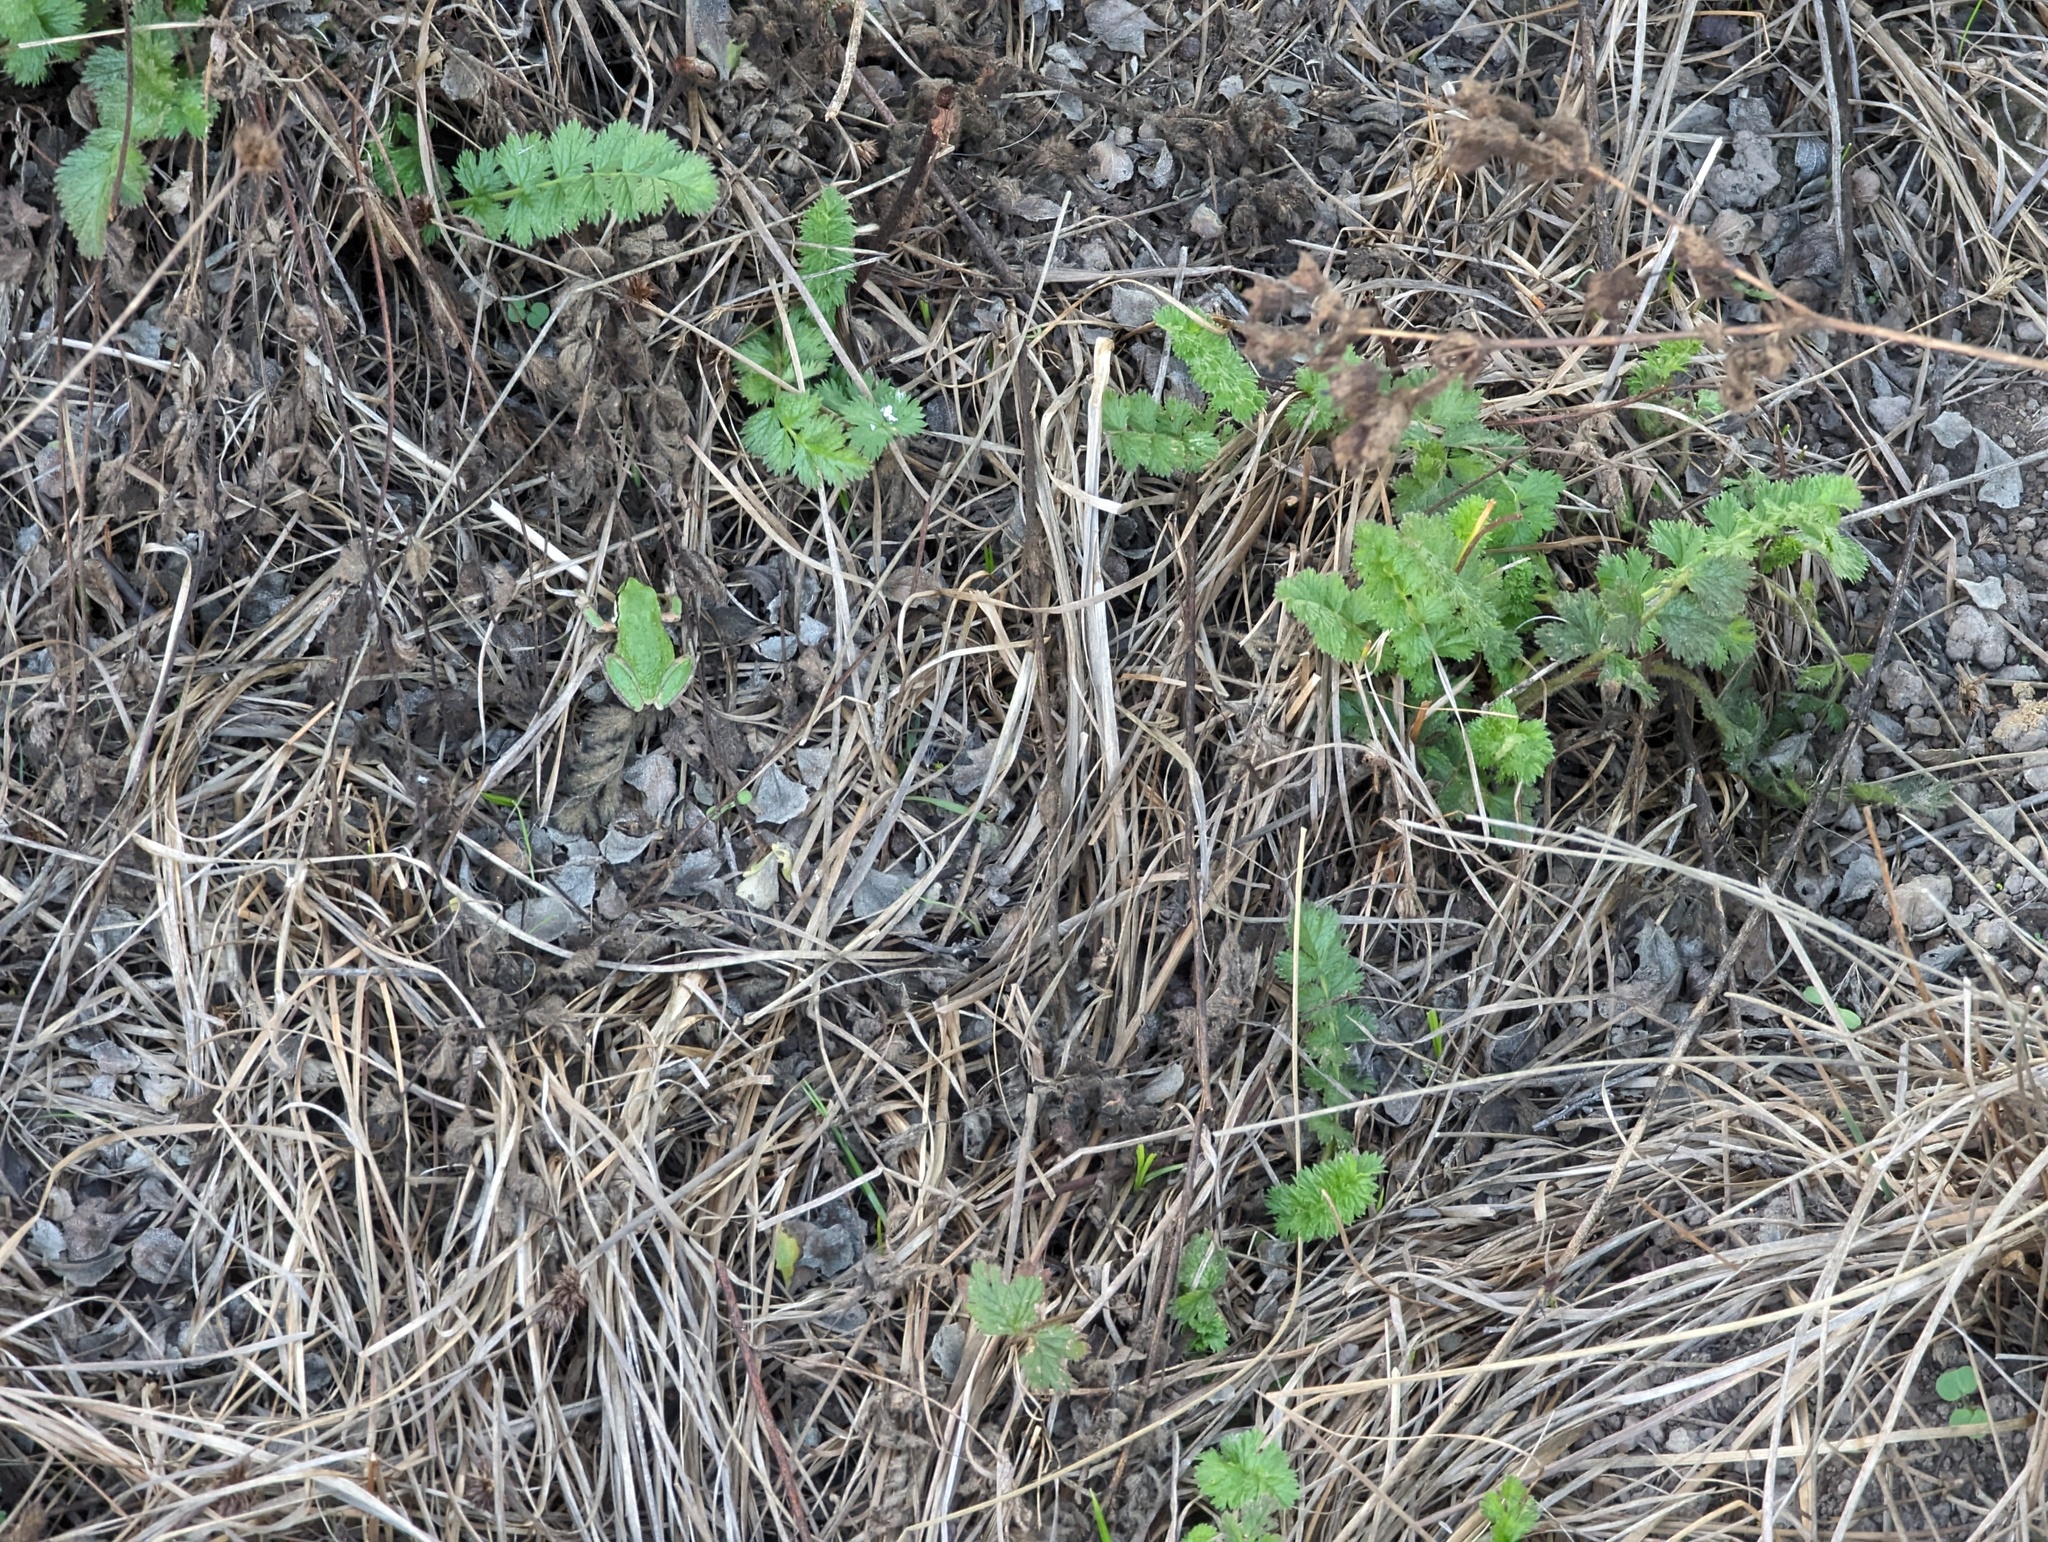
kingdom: Animalia
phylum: Chordata
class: Amphibia
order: Anura
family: Hylidae
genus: Pseudacris
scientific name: Pseudacris regilla
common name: Pacific chorus frog
